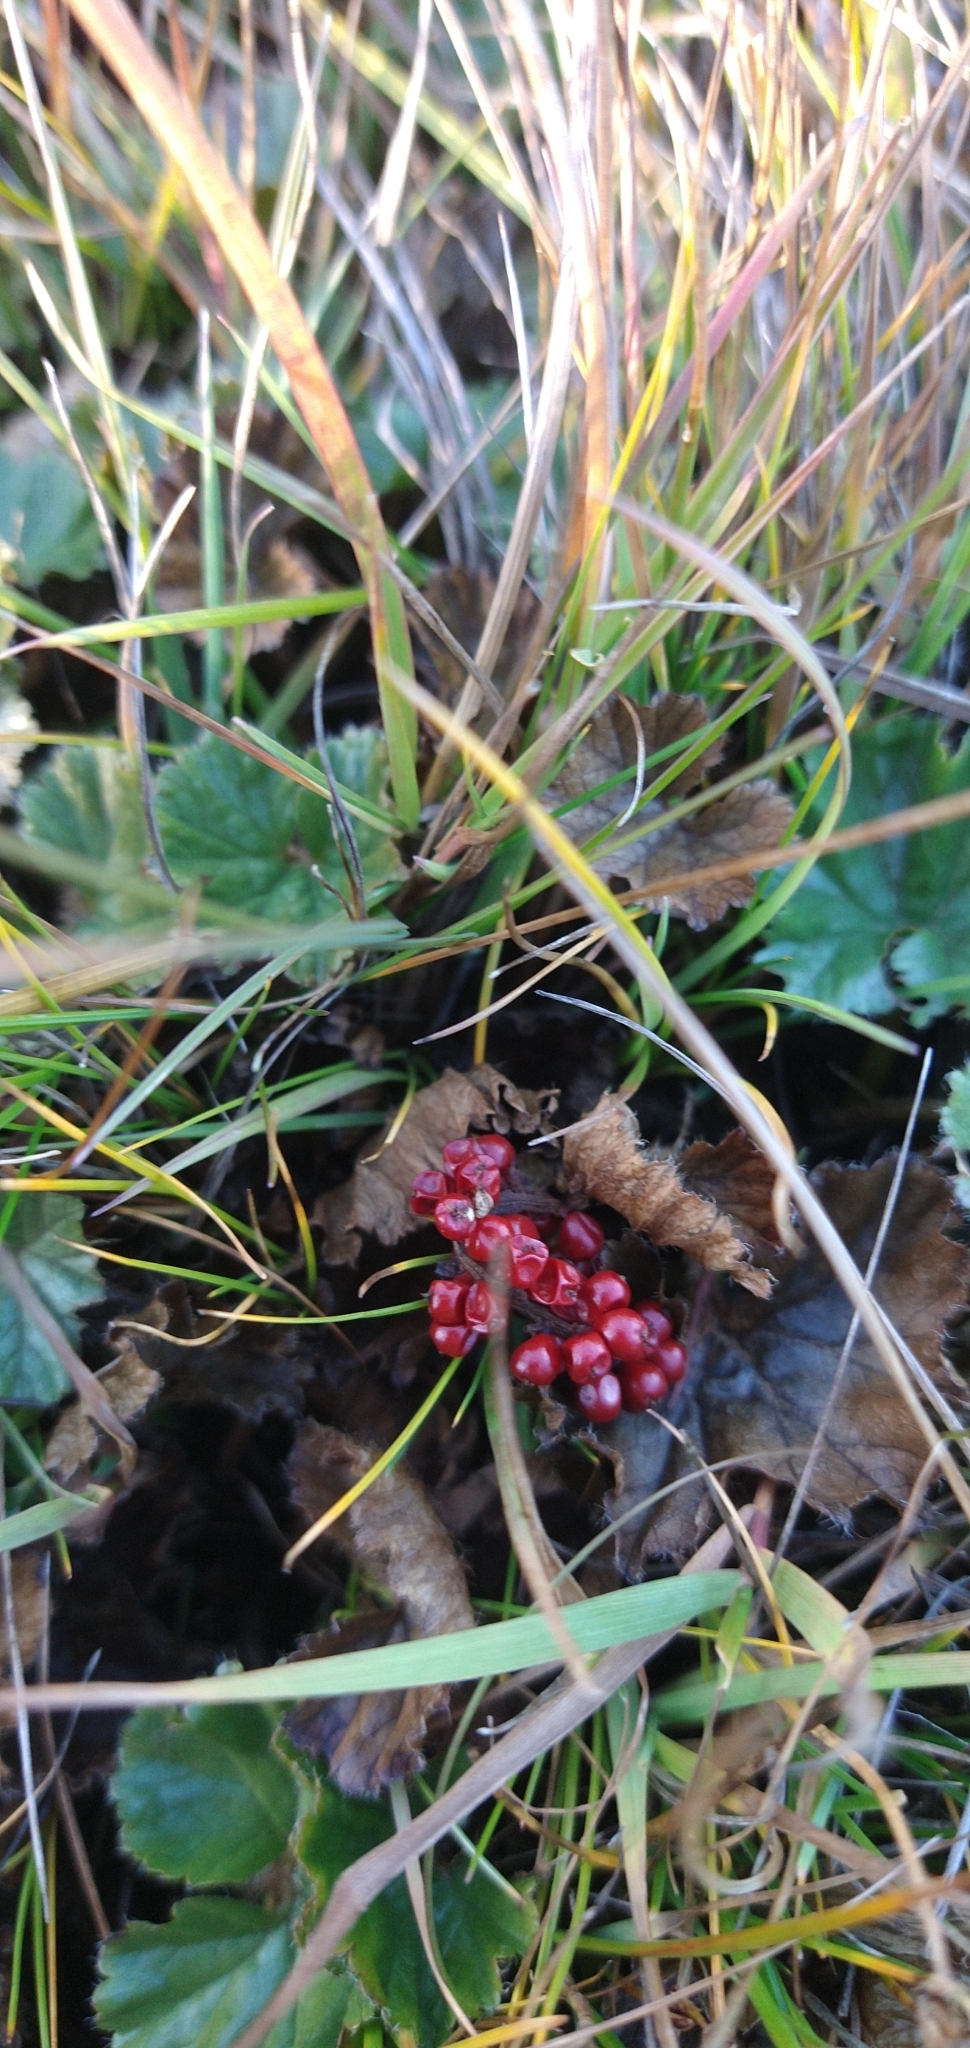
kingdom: Plantae
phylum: Tracheophyta
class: Magnoliopsida
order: Gunnerales
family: Gunneraceae
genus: Gunnera
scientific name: Gunnera magellanica
